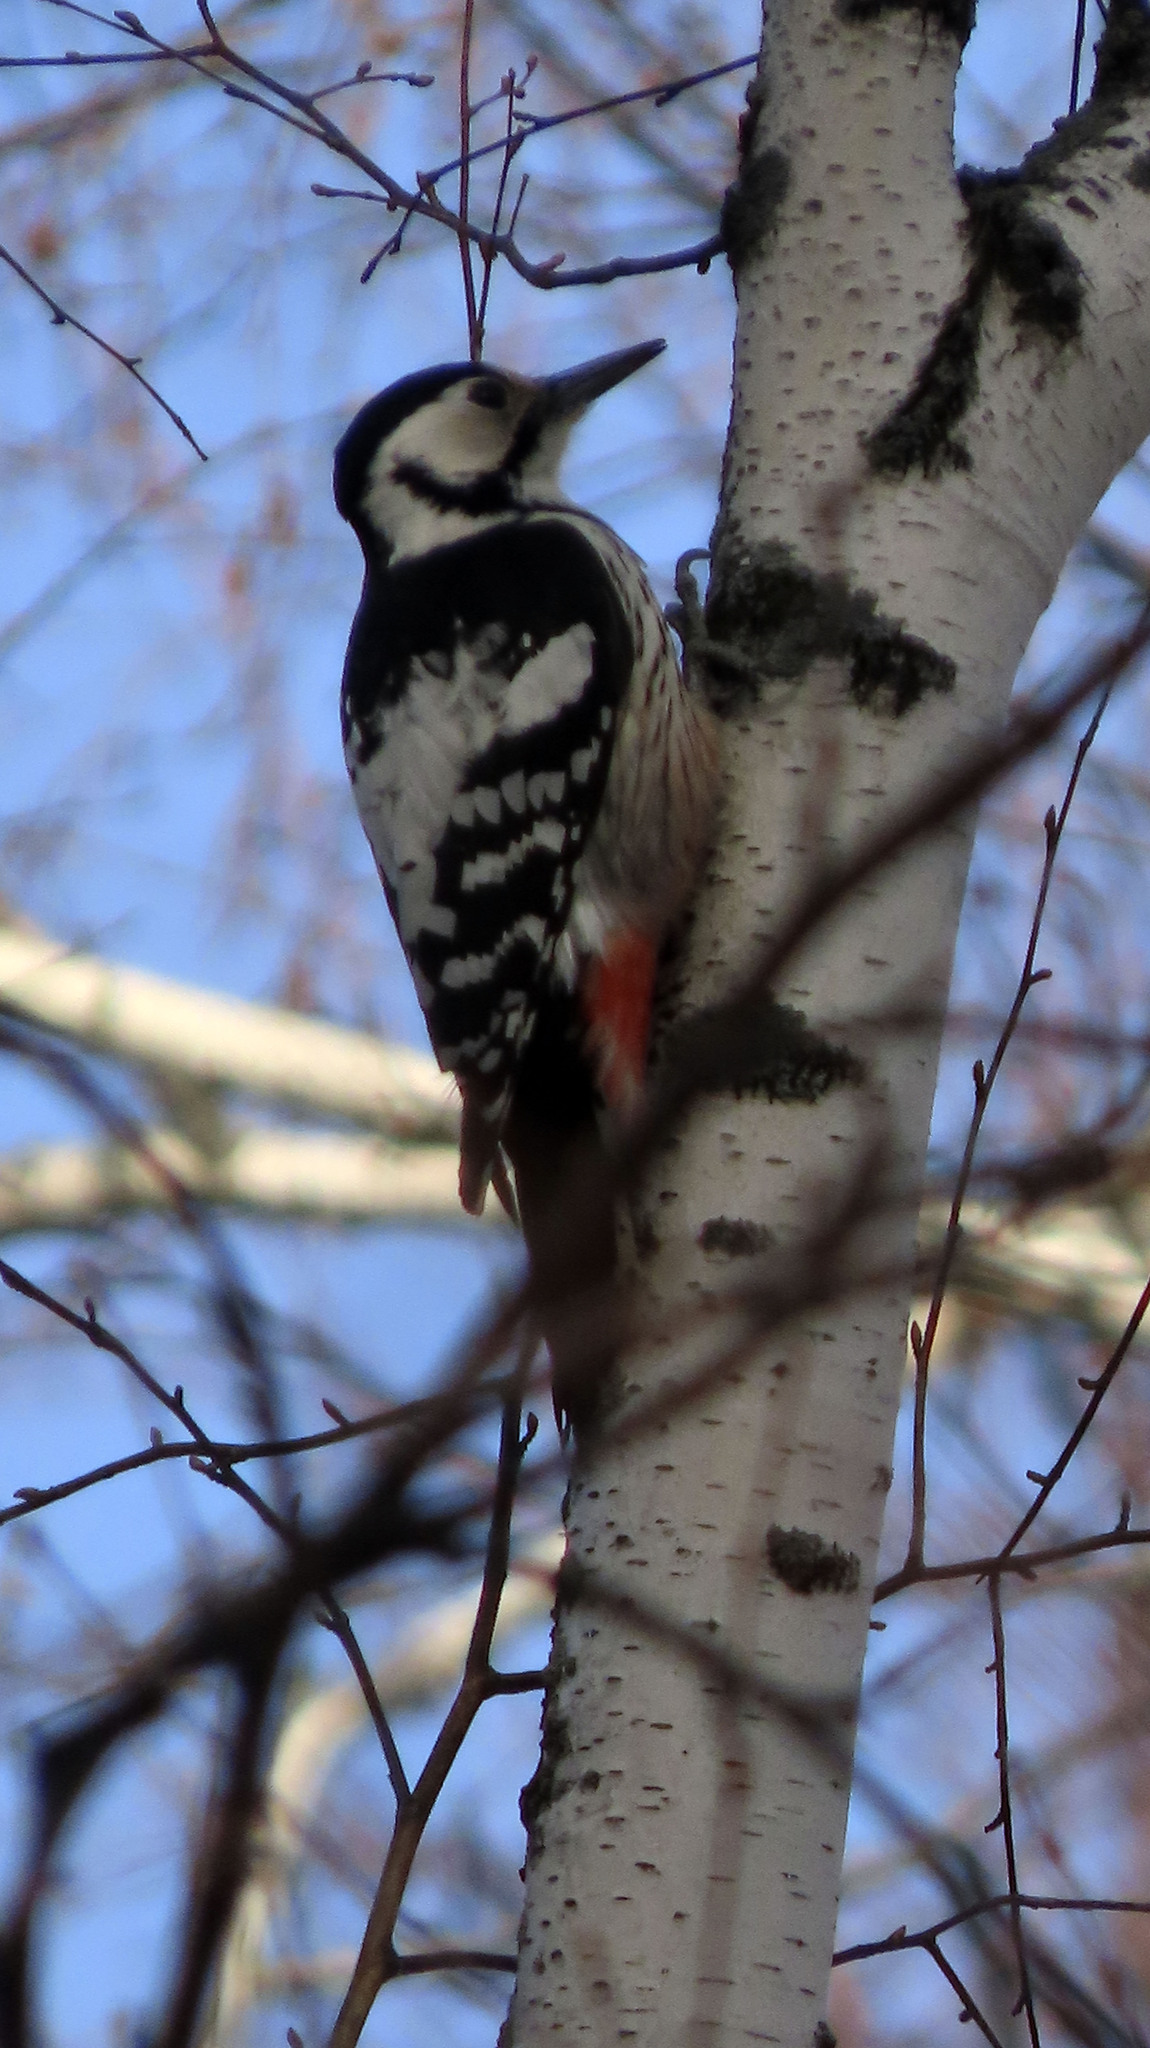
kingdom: Animalia
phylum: Chordata
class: Aves
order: Piciformes
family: Picidae
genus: Dendrocopos
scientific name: Dendrocopos leucotos
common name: White-backed woodpecker
